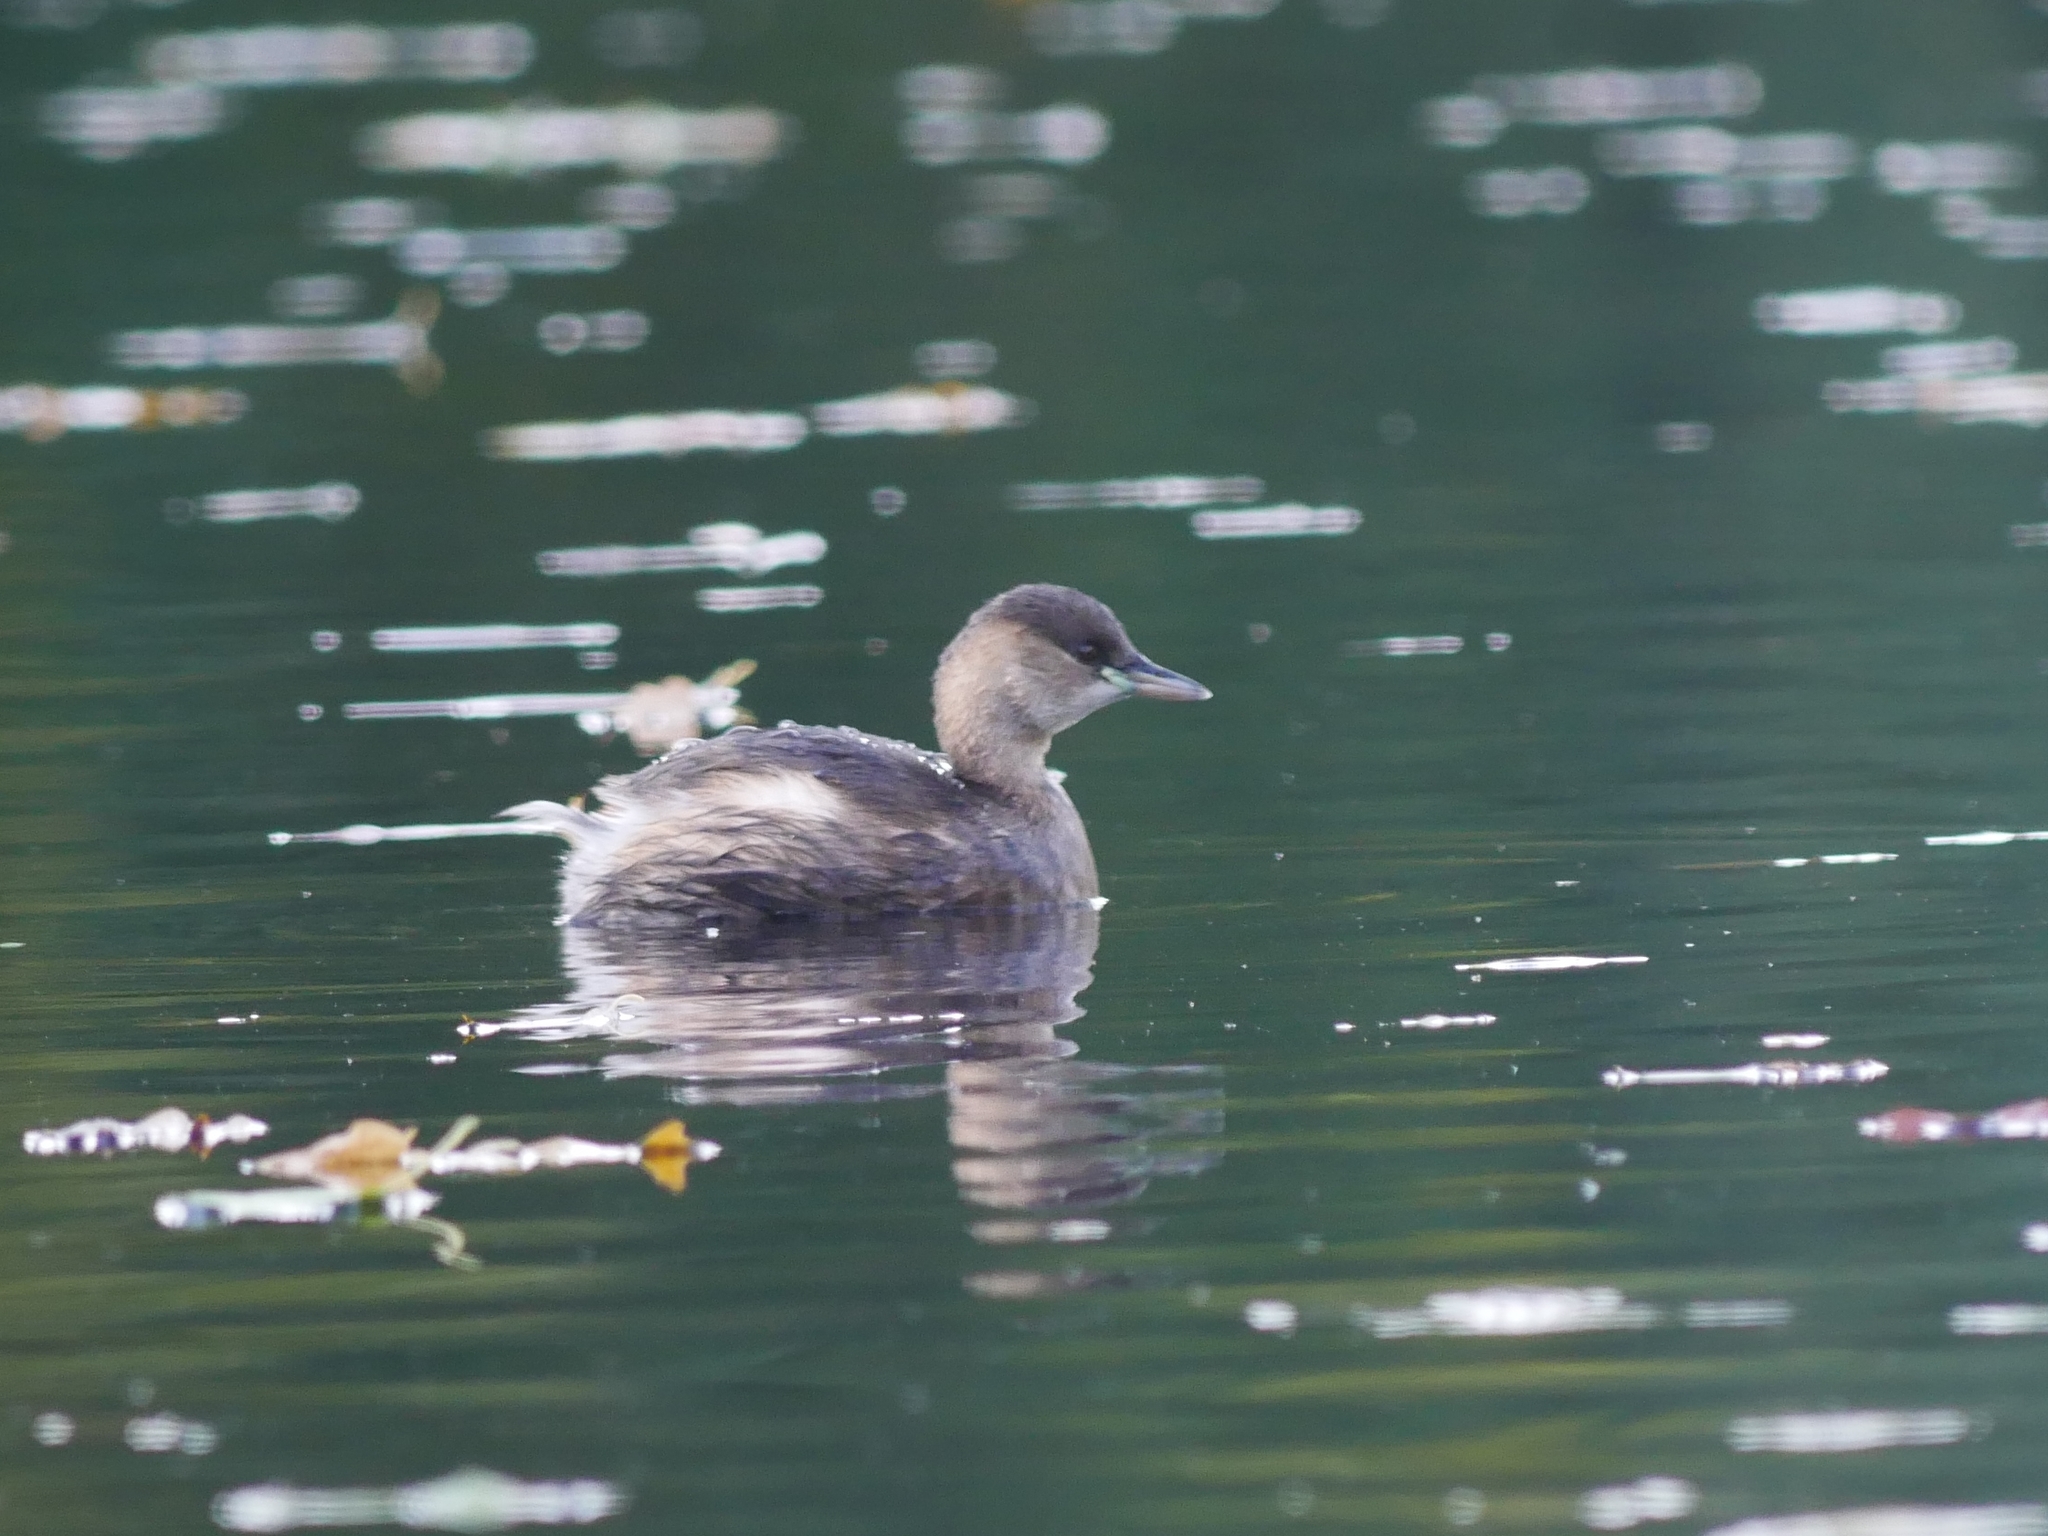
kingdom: Animalia
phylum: Chordata
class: Aves
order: Podicipediformes
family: Podicipedidae
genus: Tachybaptus
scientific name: Tachybaptus ruficollis
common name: Little grebe
